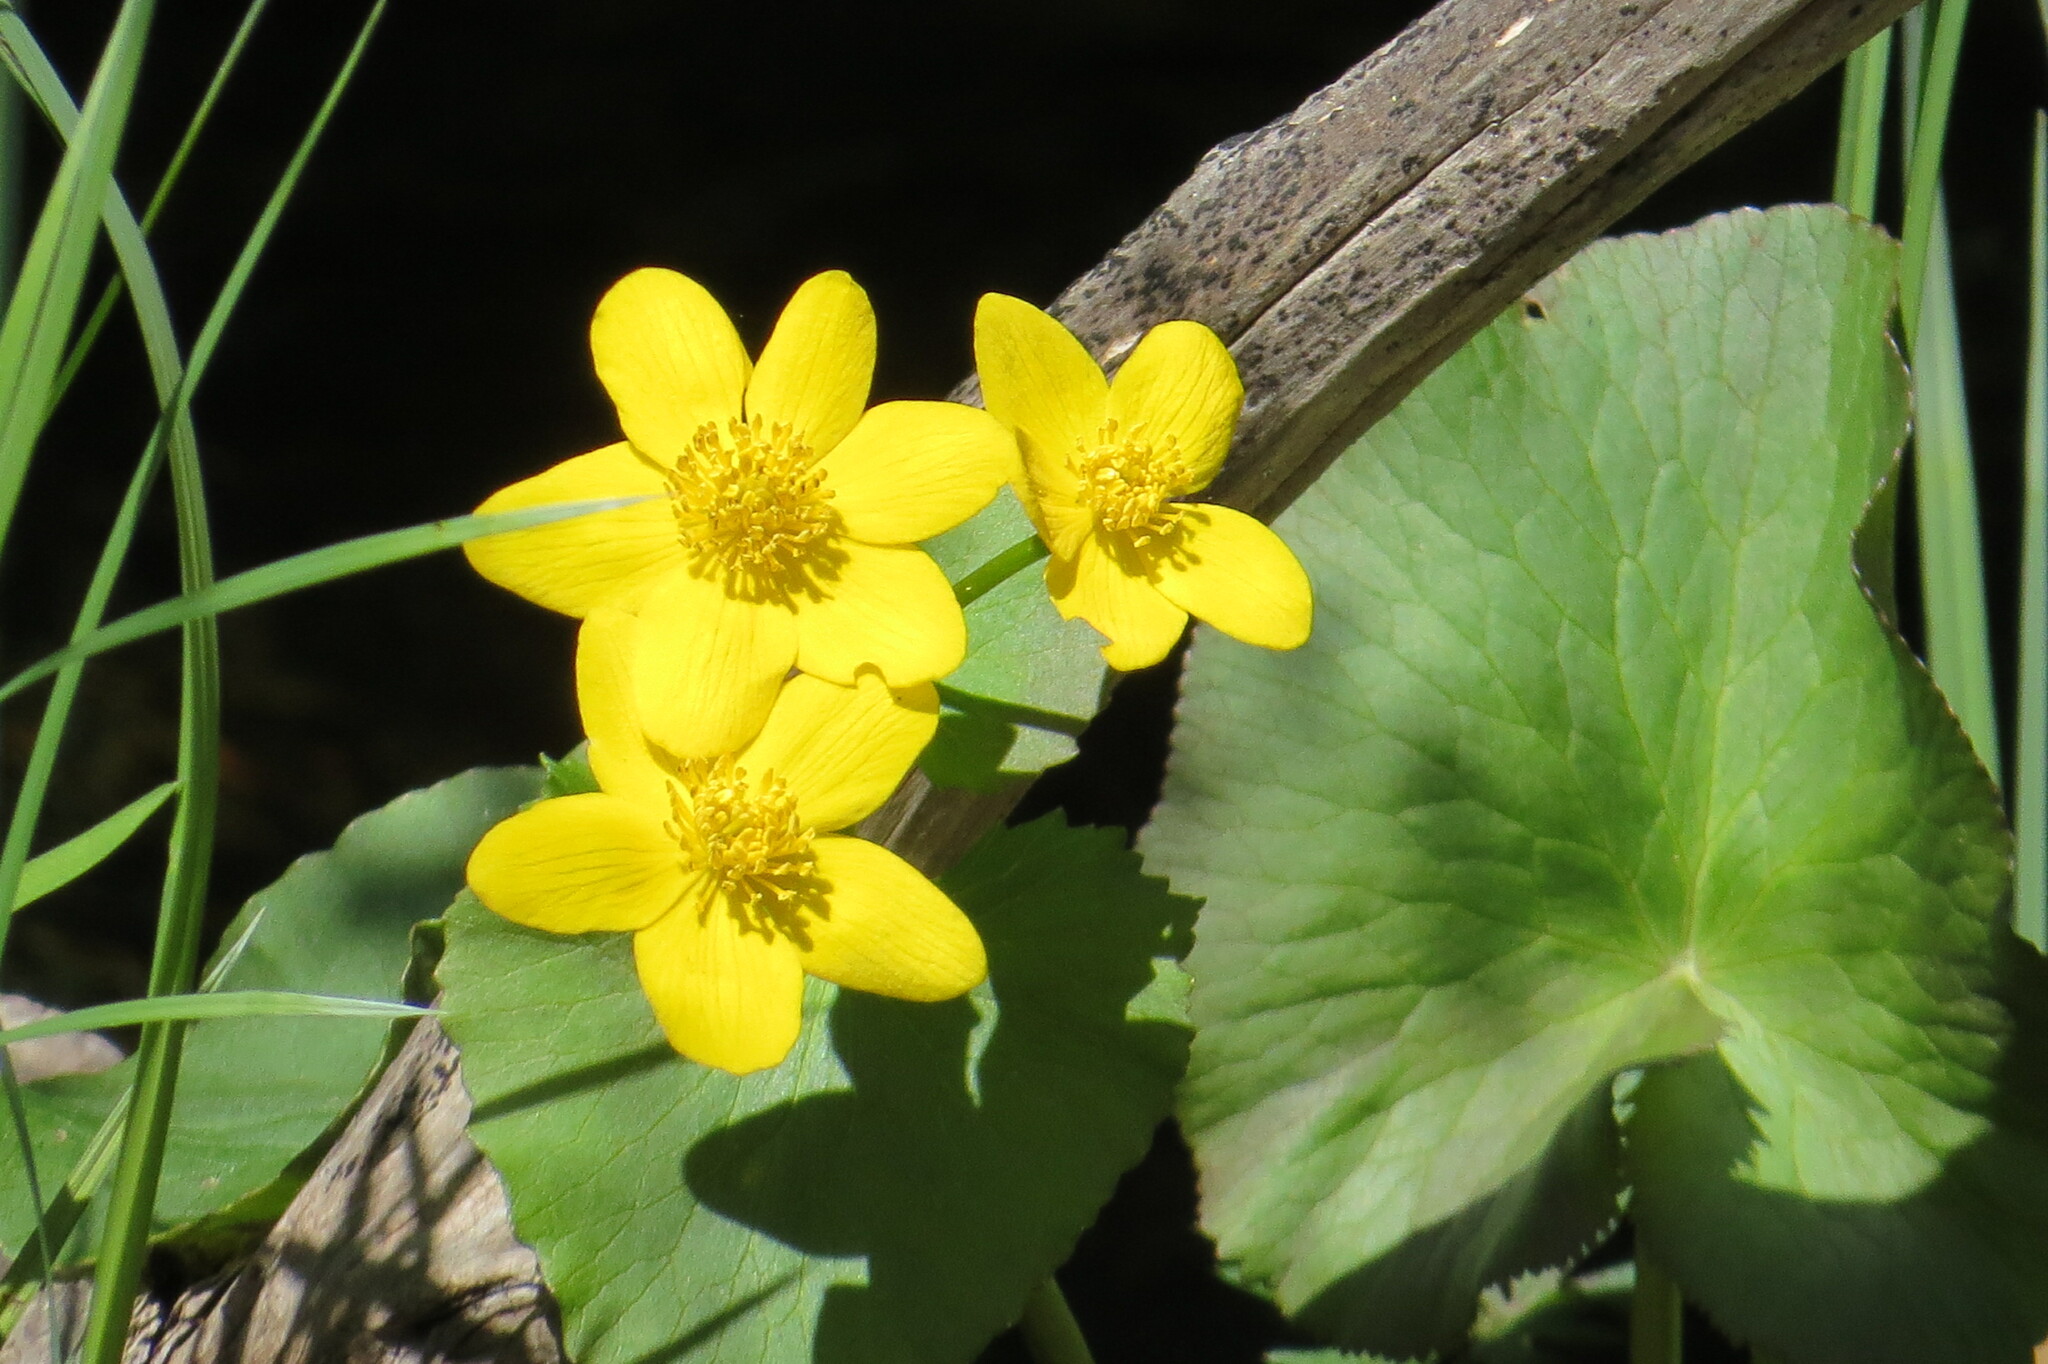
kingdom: Plantae
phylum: Tracheophyta
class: Magnoliopsida
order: Ranunculales
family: Ranunculaceae
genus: Caltha
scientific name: Caltha palustris
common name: Marsh marigold
